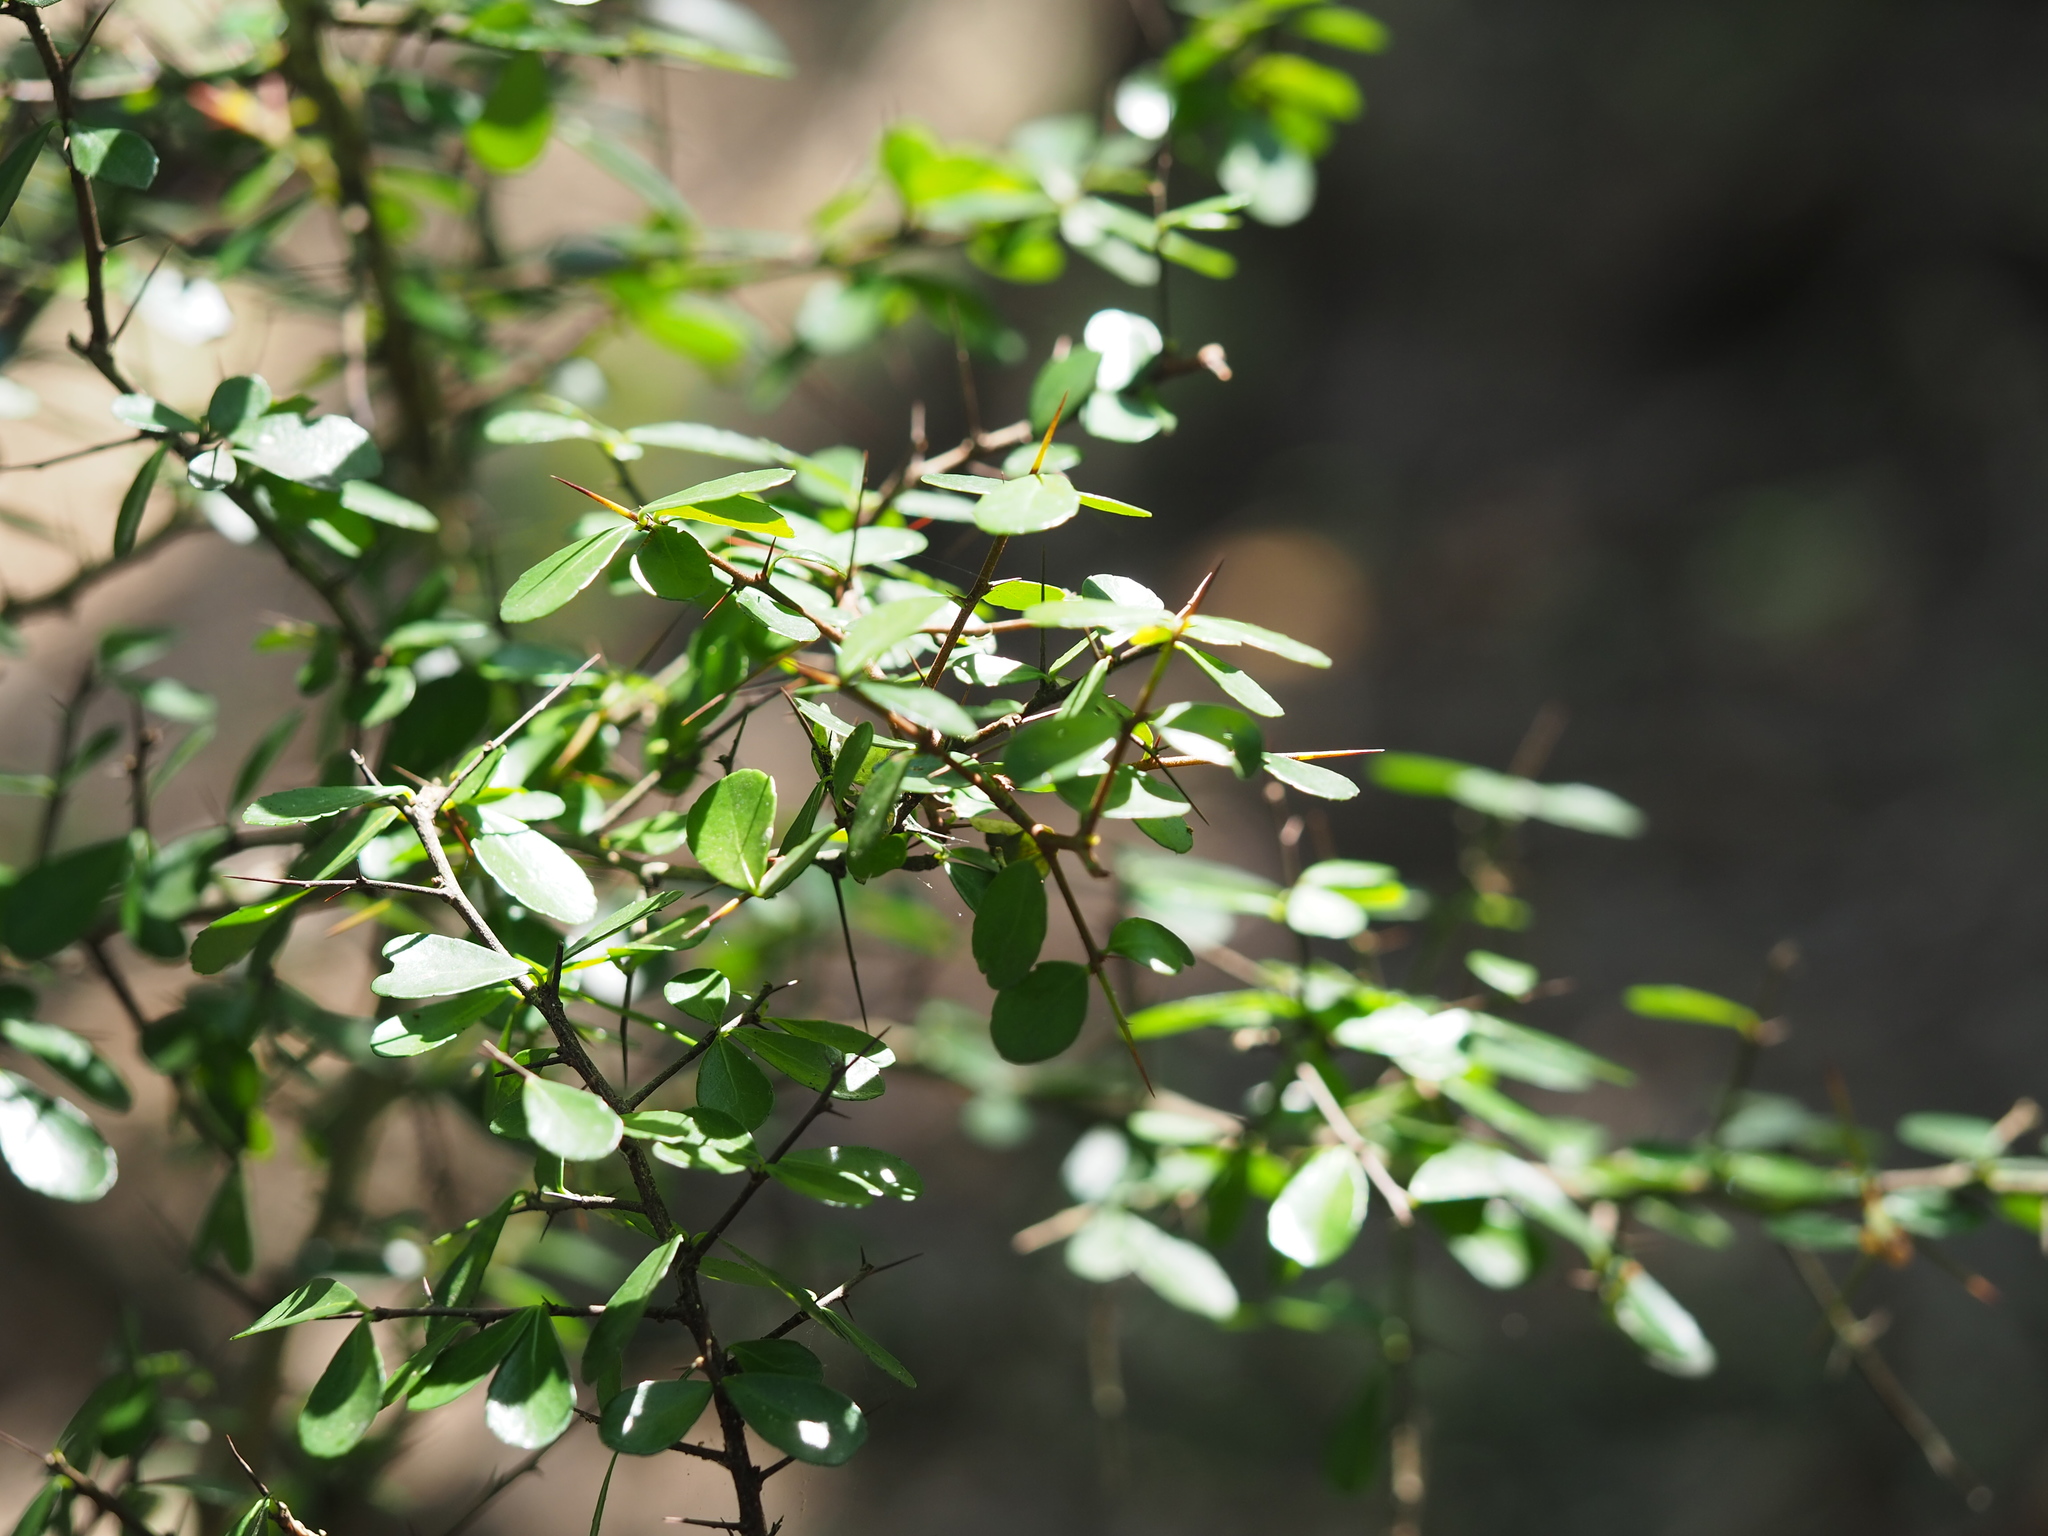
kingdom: Plantae
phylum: Tracheophyta
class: Magnoliopsida
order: Celastrales
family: Celastraceae
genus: Gymnosporia
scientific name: Gymnosporia diversifolia
